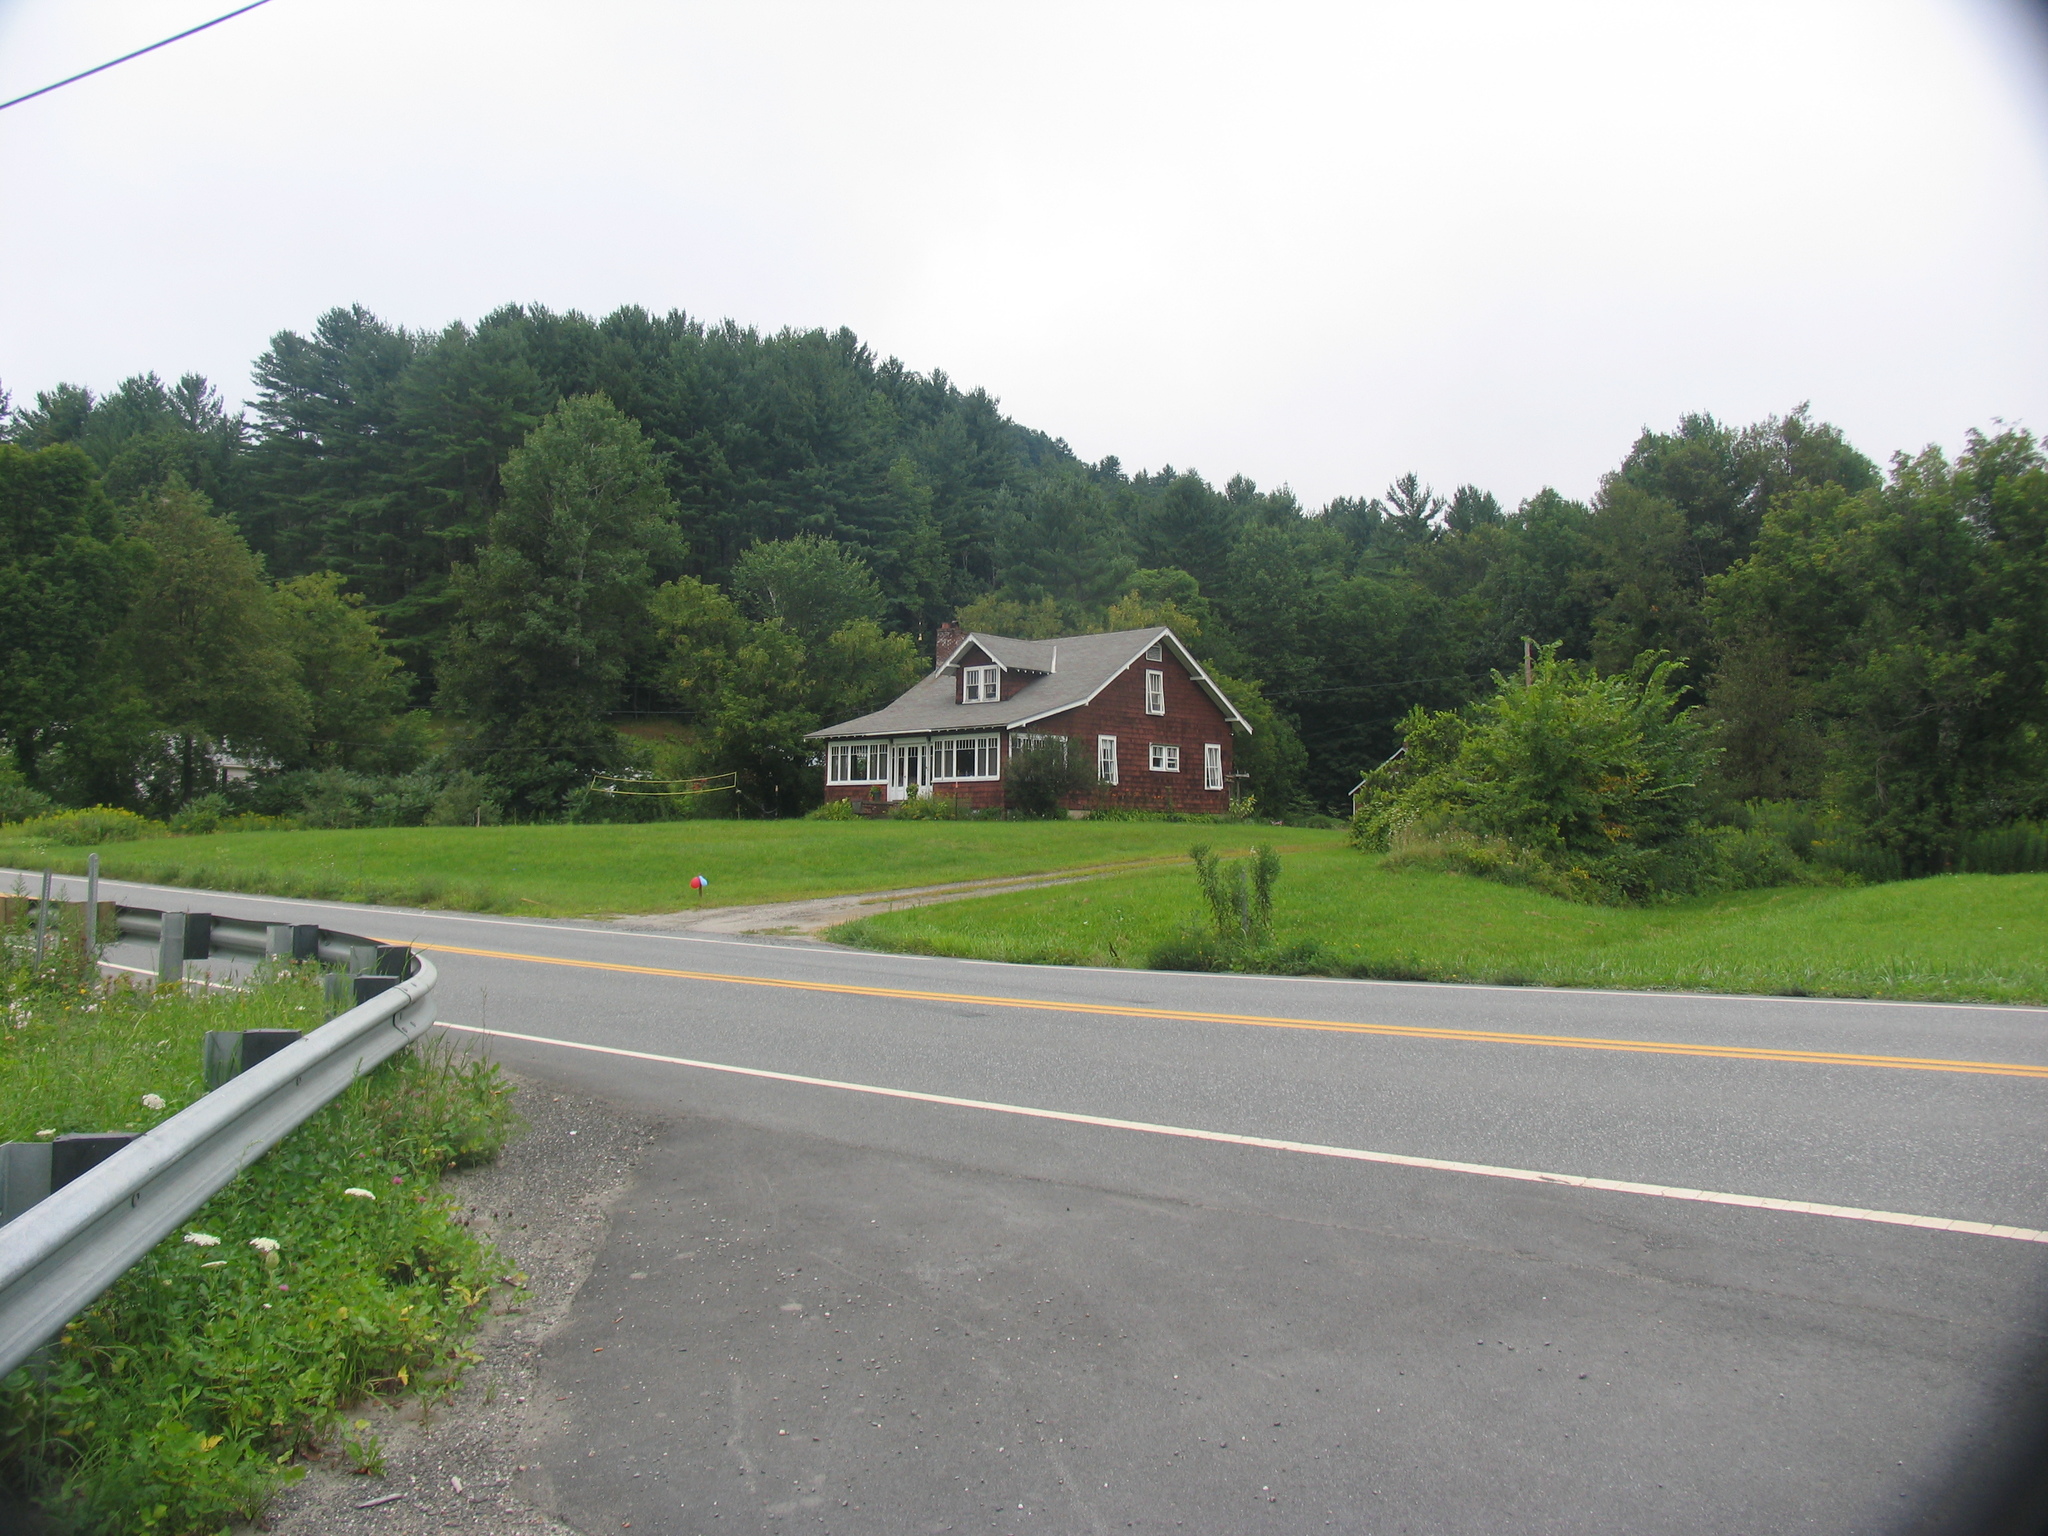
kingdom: Plantae
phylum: Tracheophyta
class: Pinopsida
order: Pinales
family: Pinaceae
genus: Pinus
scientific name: Pinus strobus
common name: Weymouth pine
